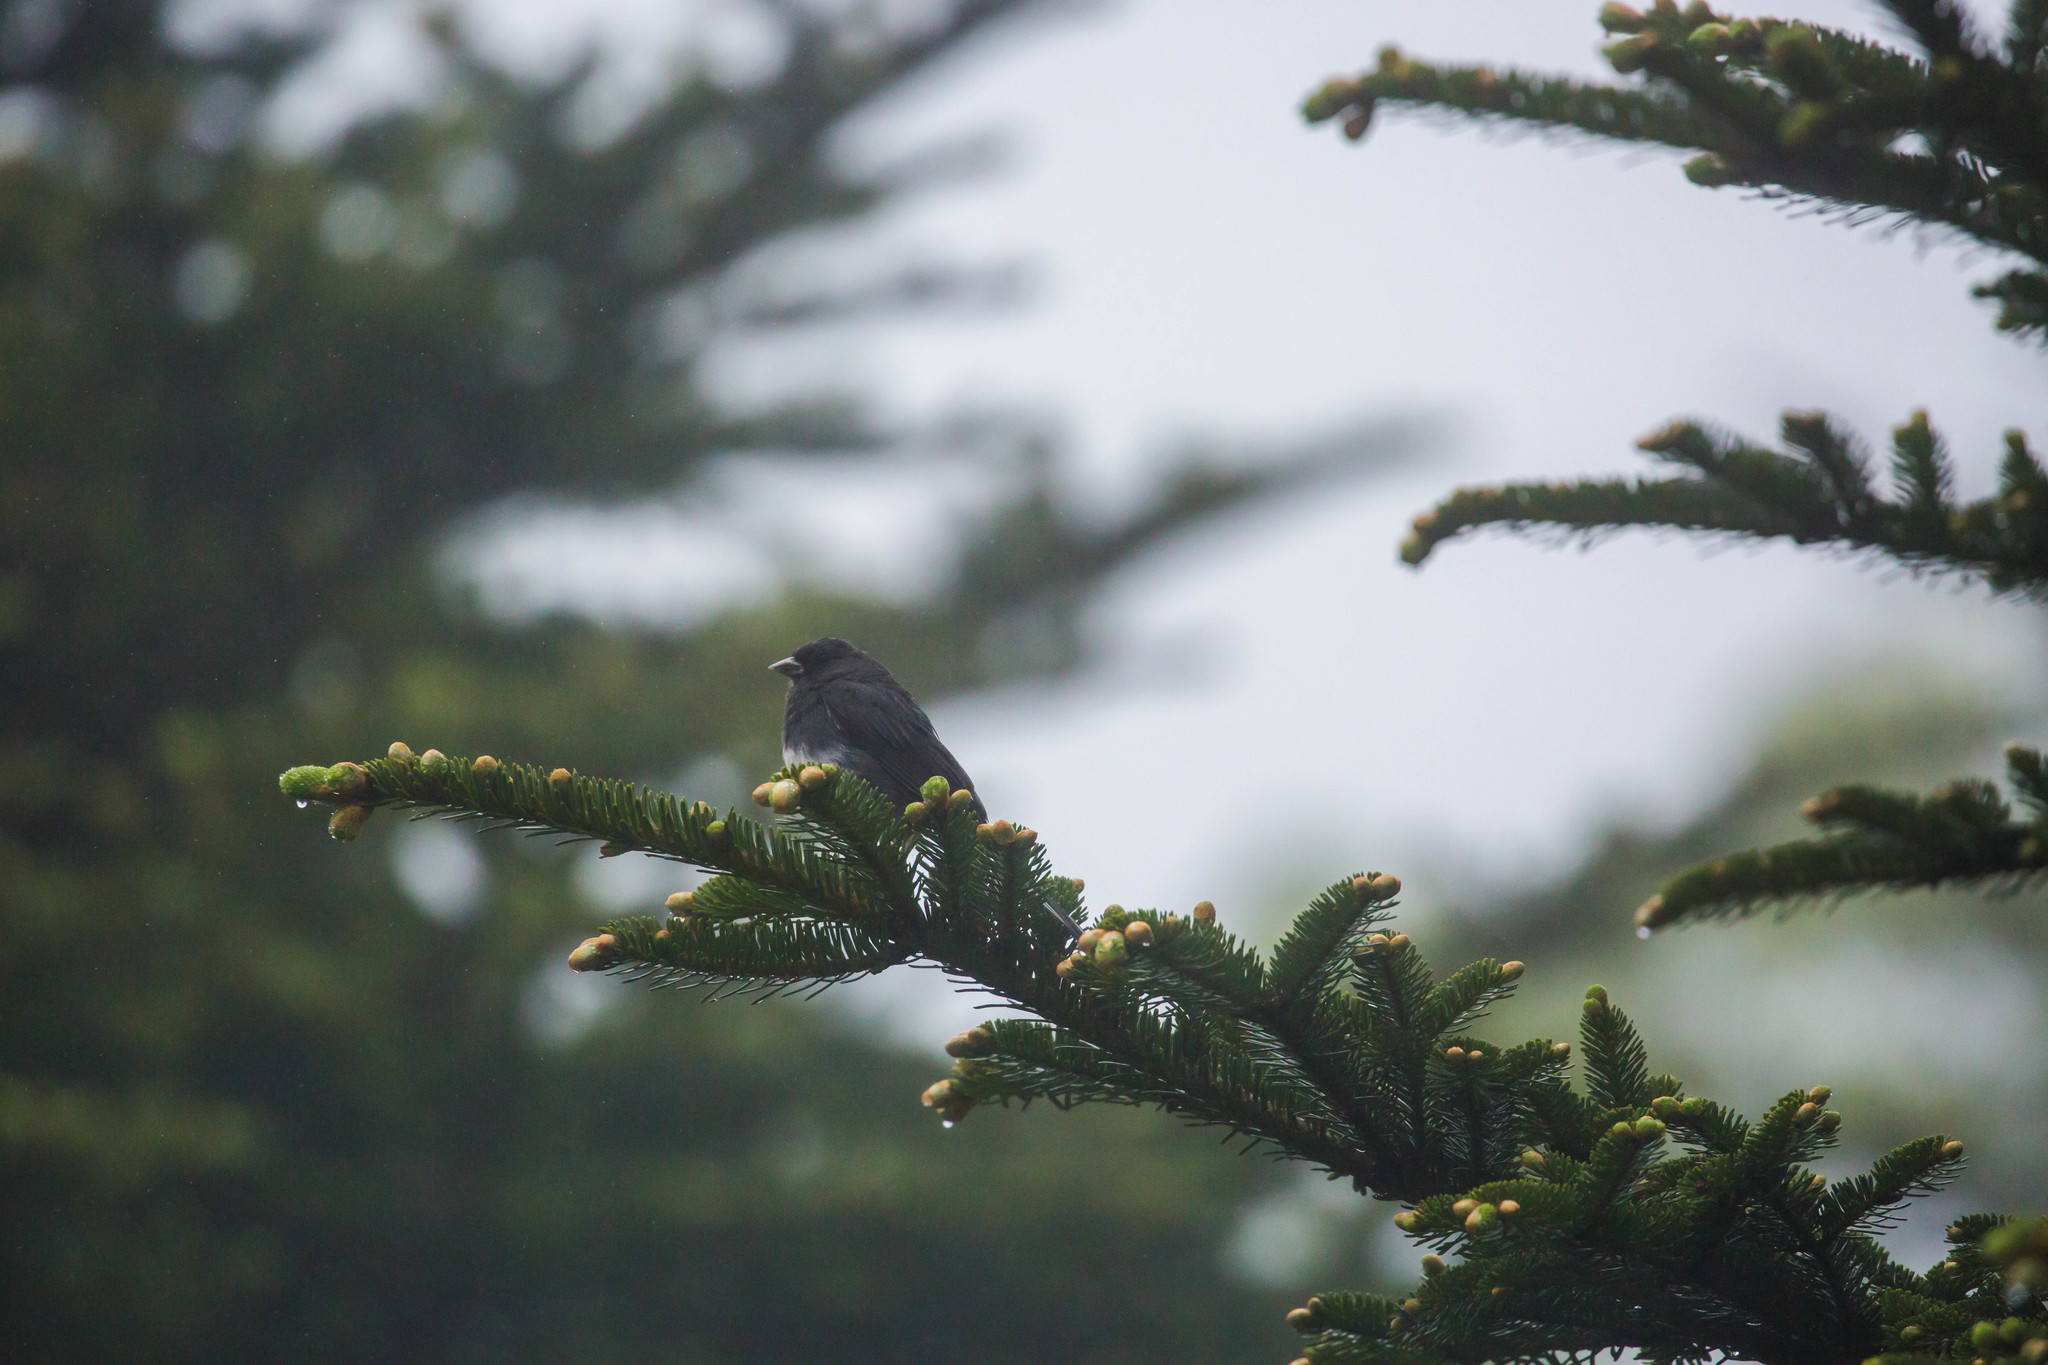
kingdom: Animalia
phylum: Chordata
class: Aves
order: Passeriformes
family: Passerellidae
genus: Junco
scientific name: Junco hyemalis
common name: Dark-eyed junco
